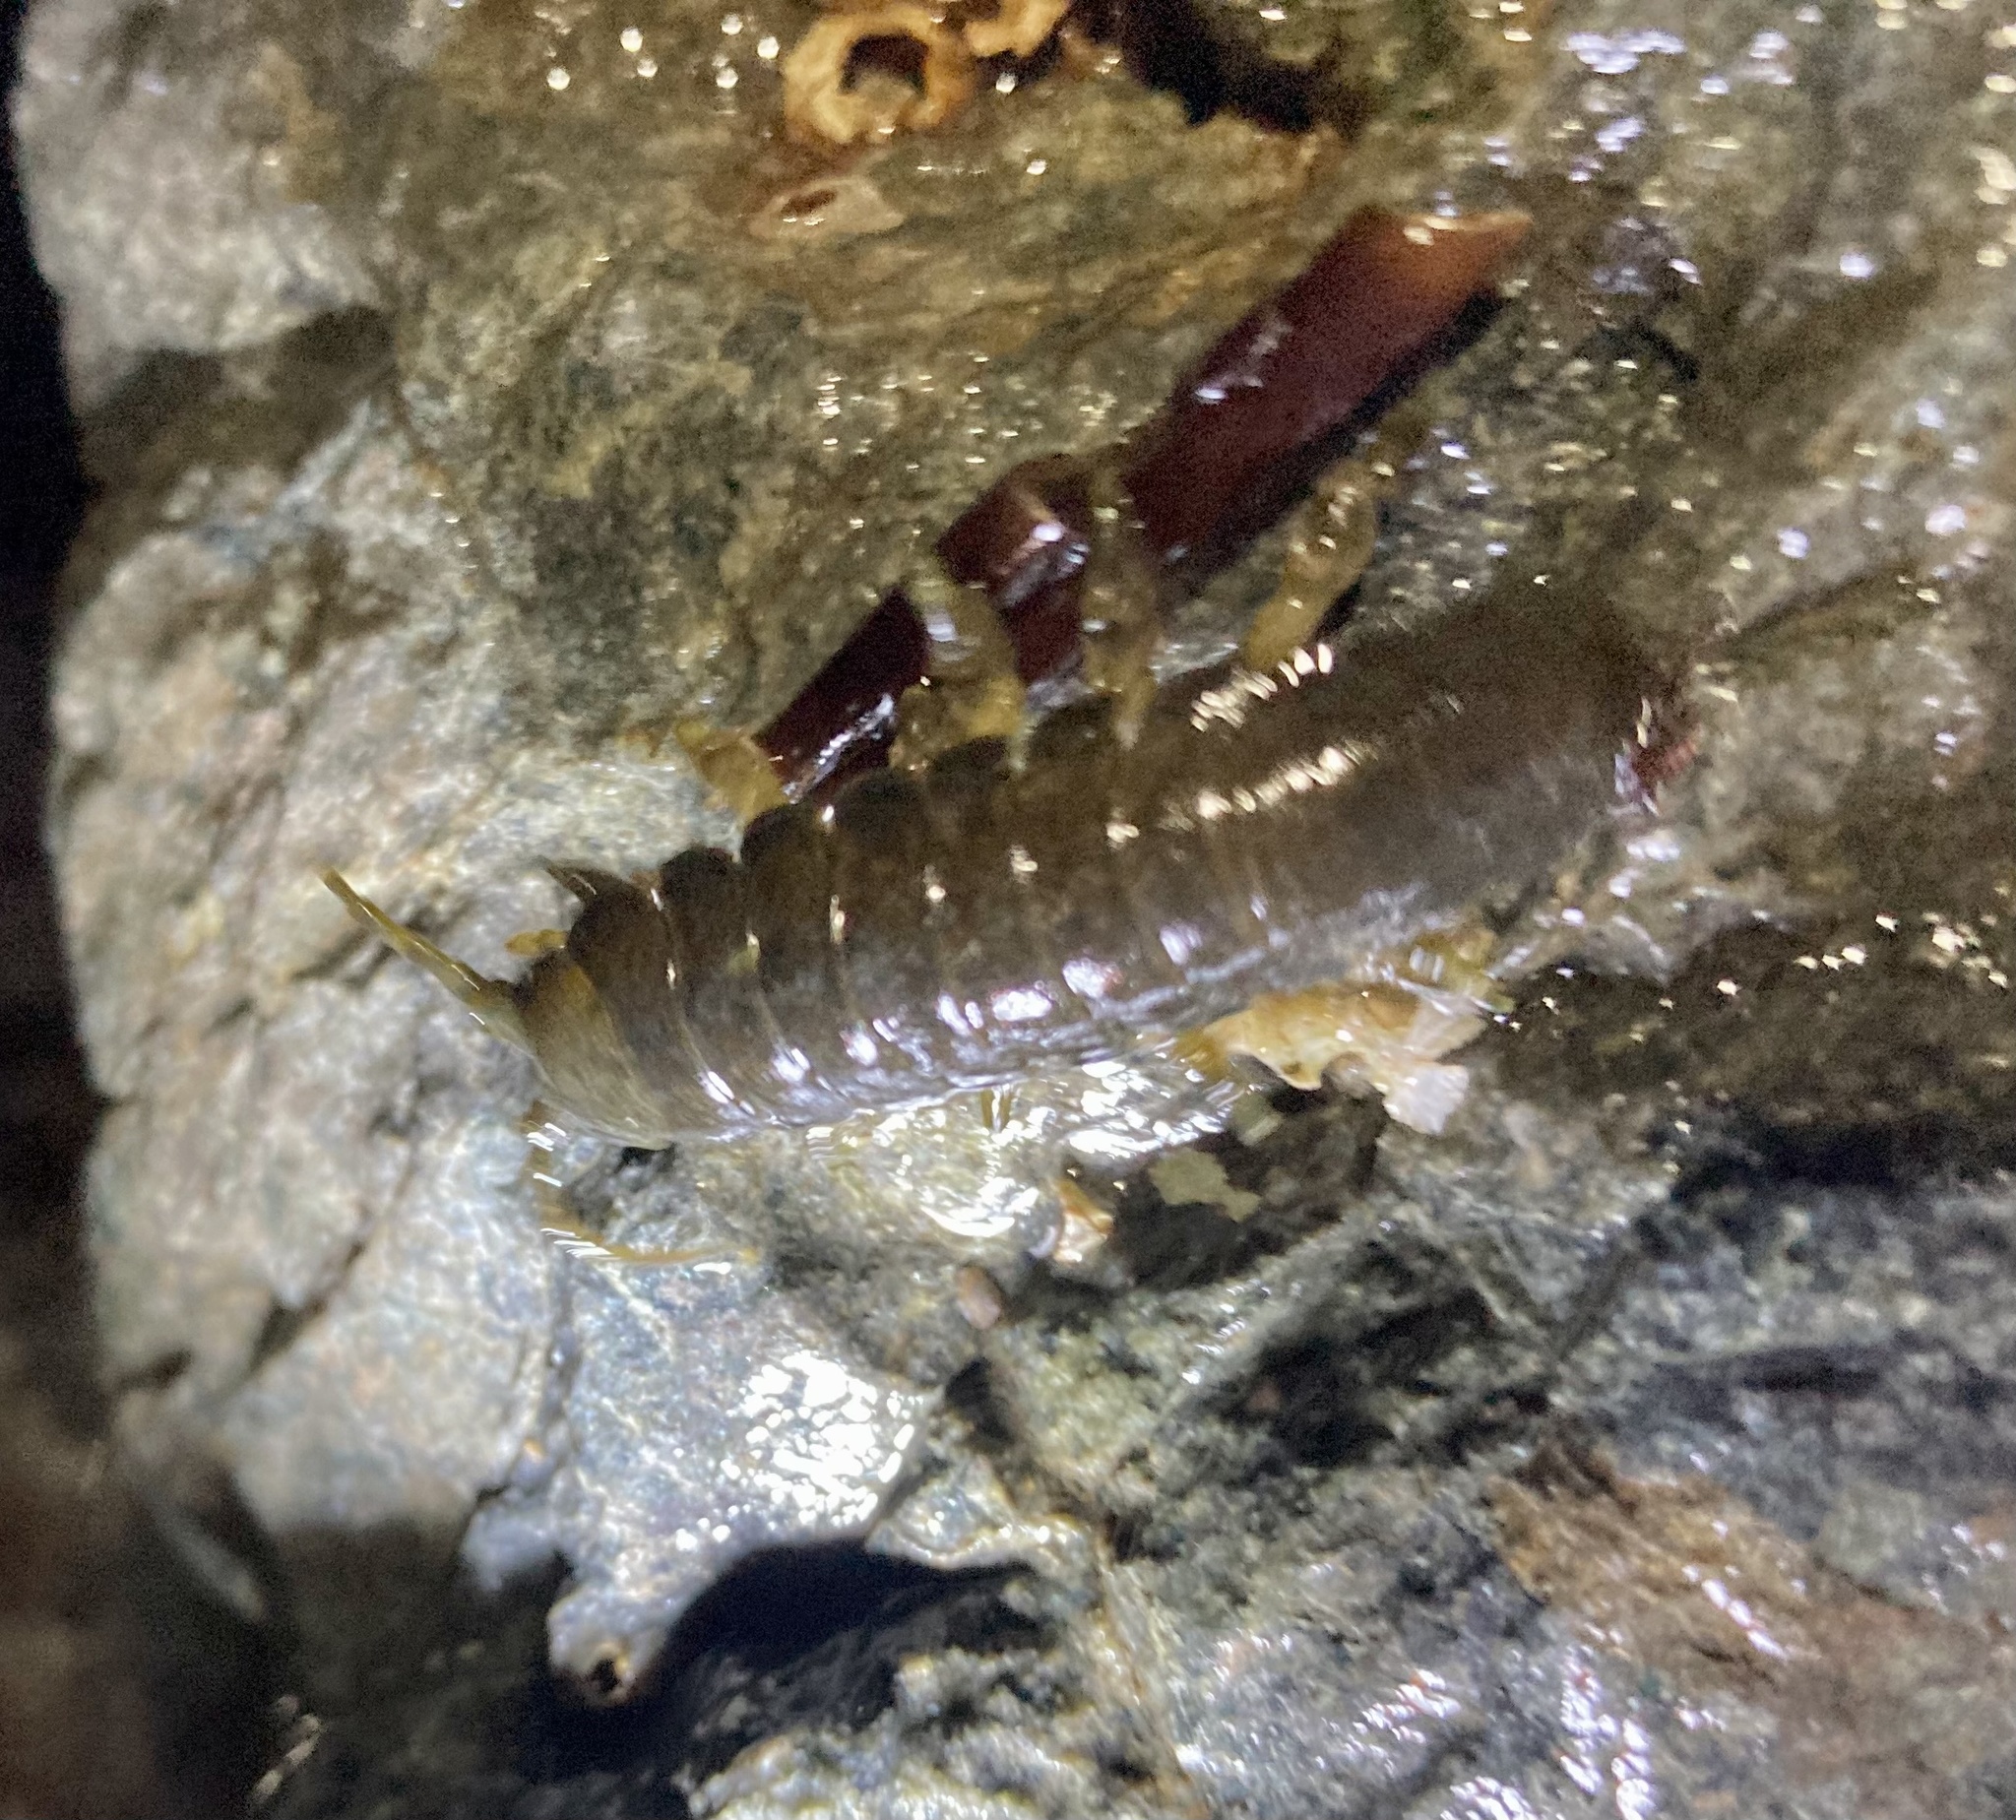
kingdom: Animalia
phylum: Arthropoda
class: Malacostraca
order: Isopoda
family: Idoteidae
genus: Pentidotea
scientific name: Pentidotea wosnesenskii
